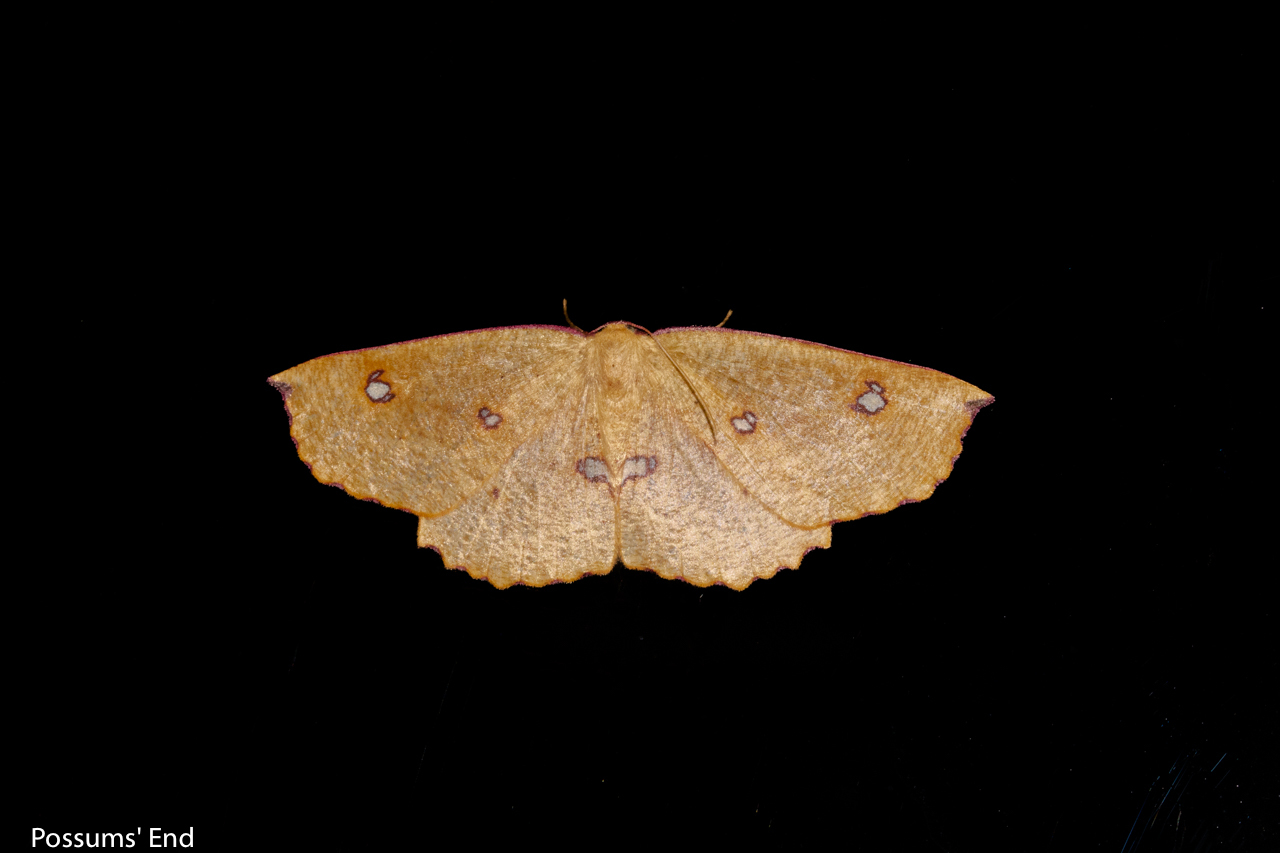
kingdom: Animalia
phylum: Arthropoda
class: Insecta
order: Lepidoptera
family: Geometridae
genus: Xyridacma
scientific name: Xyridacma alectoraria
